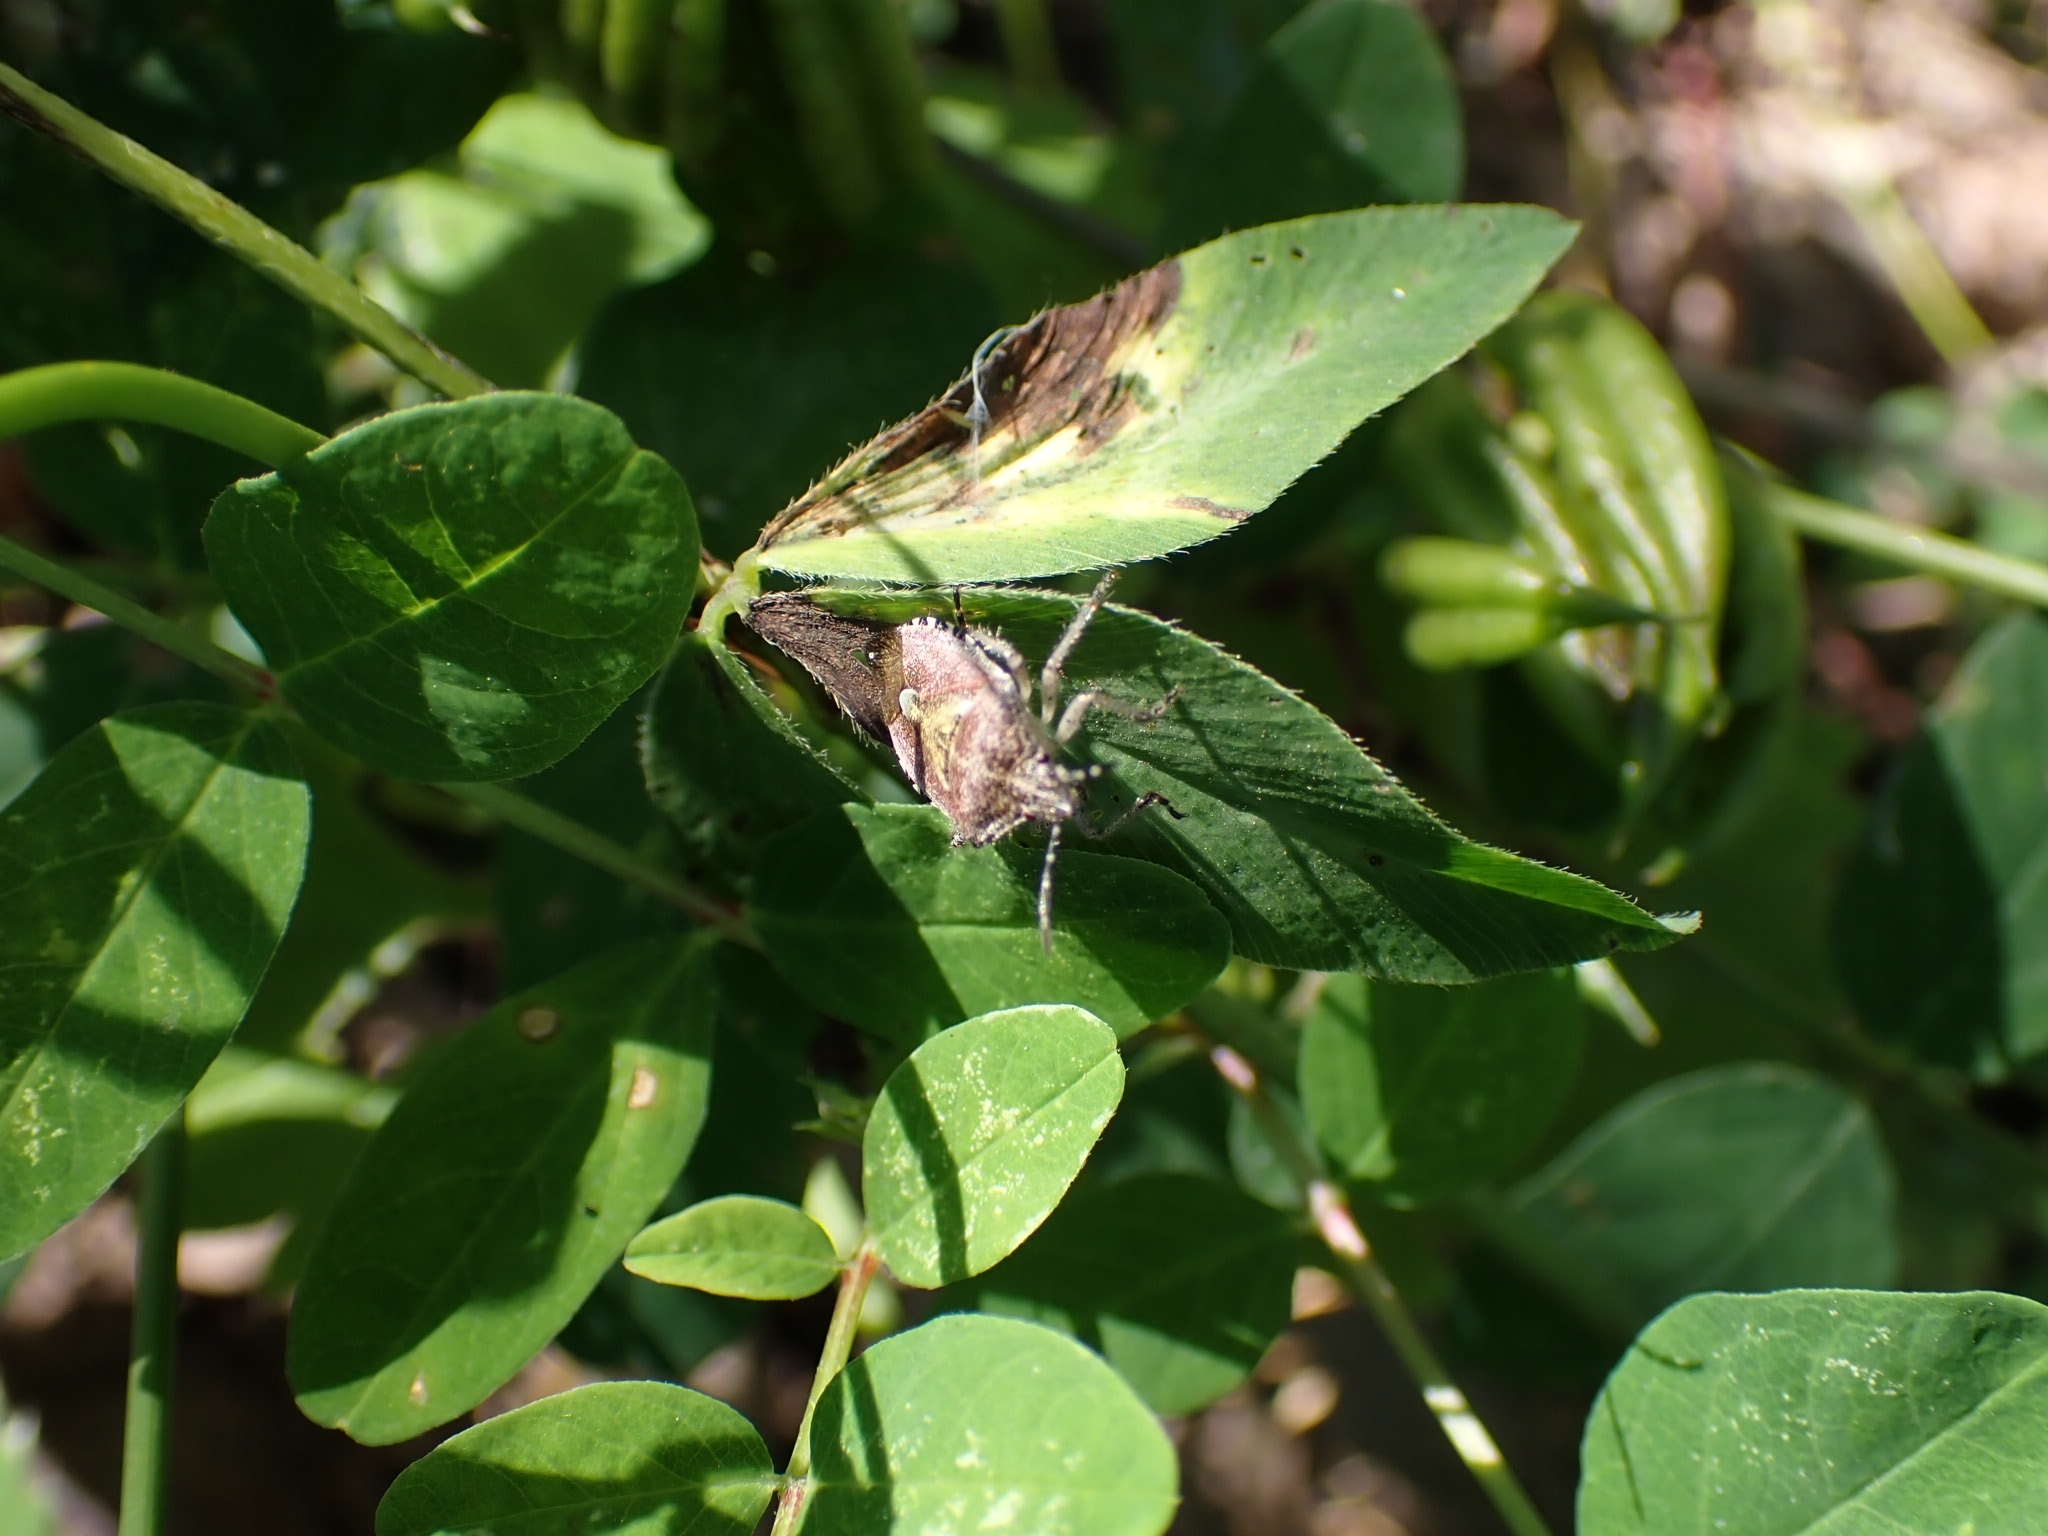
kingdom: Animalia
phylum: Arthropoda
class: Insecta
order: Hemiptera
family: Pentatomidae
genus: Dolycoris
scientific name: Dolycoris baccarum
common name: Sloe bug
